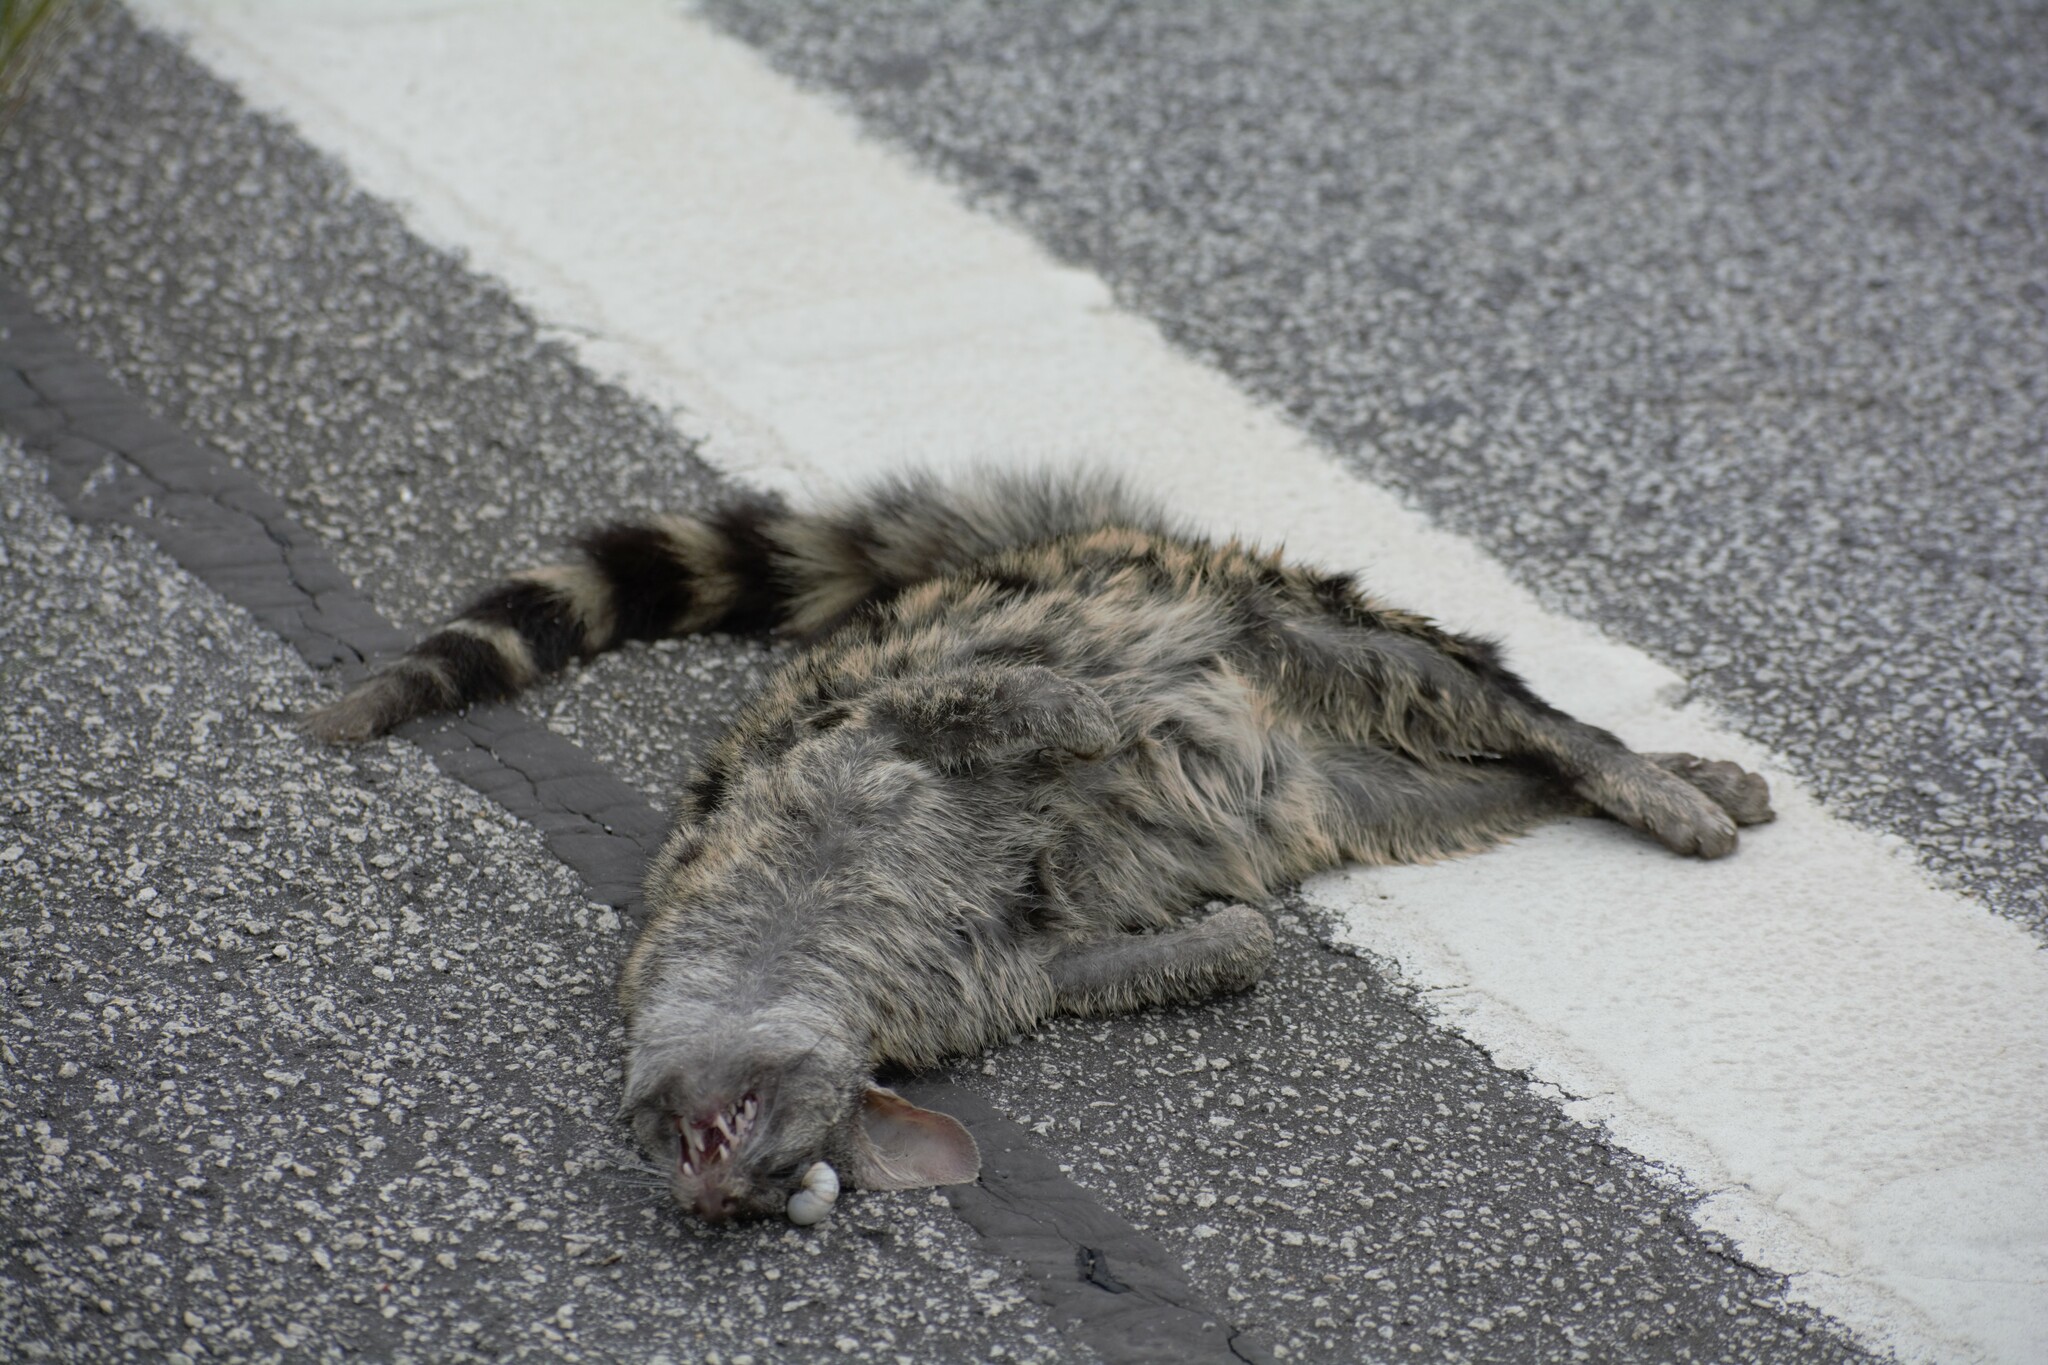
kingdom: Animalia
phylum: Chordata
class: Mammalia
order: Carnivora
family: Viverridae
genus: Genetta
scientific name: Genetta genetta
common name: Common genet
